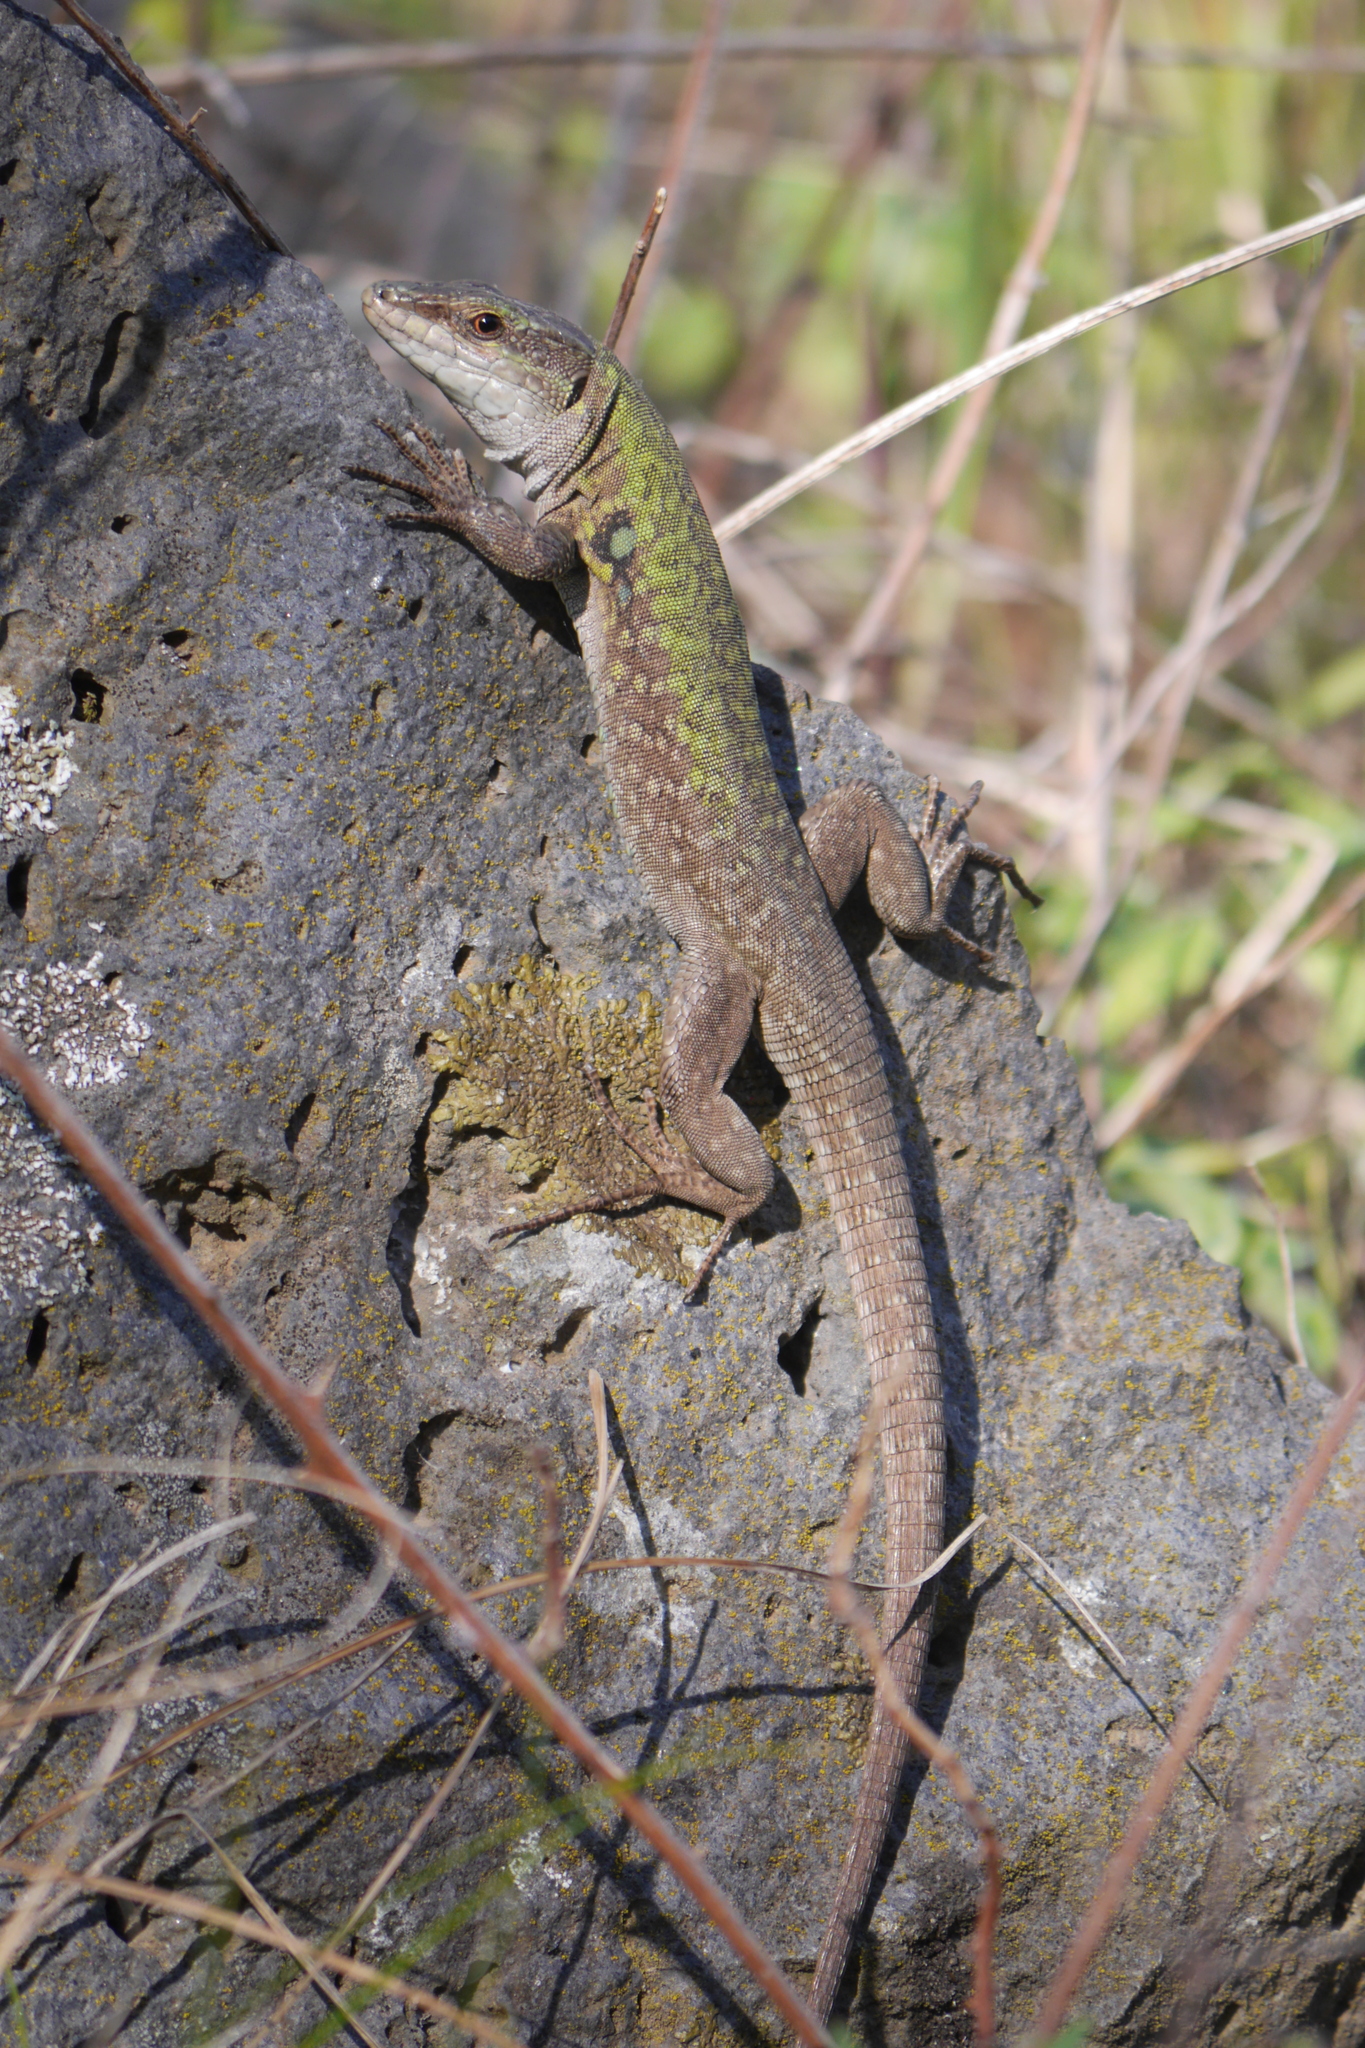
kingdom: Animalia
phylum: Chordata
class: Squamata
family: Lacertidae
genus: Podarcis
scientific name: Podarcis siculus
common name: Italian wall lizard
